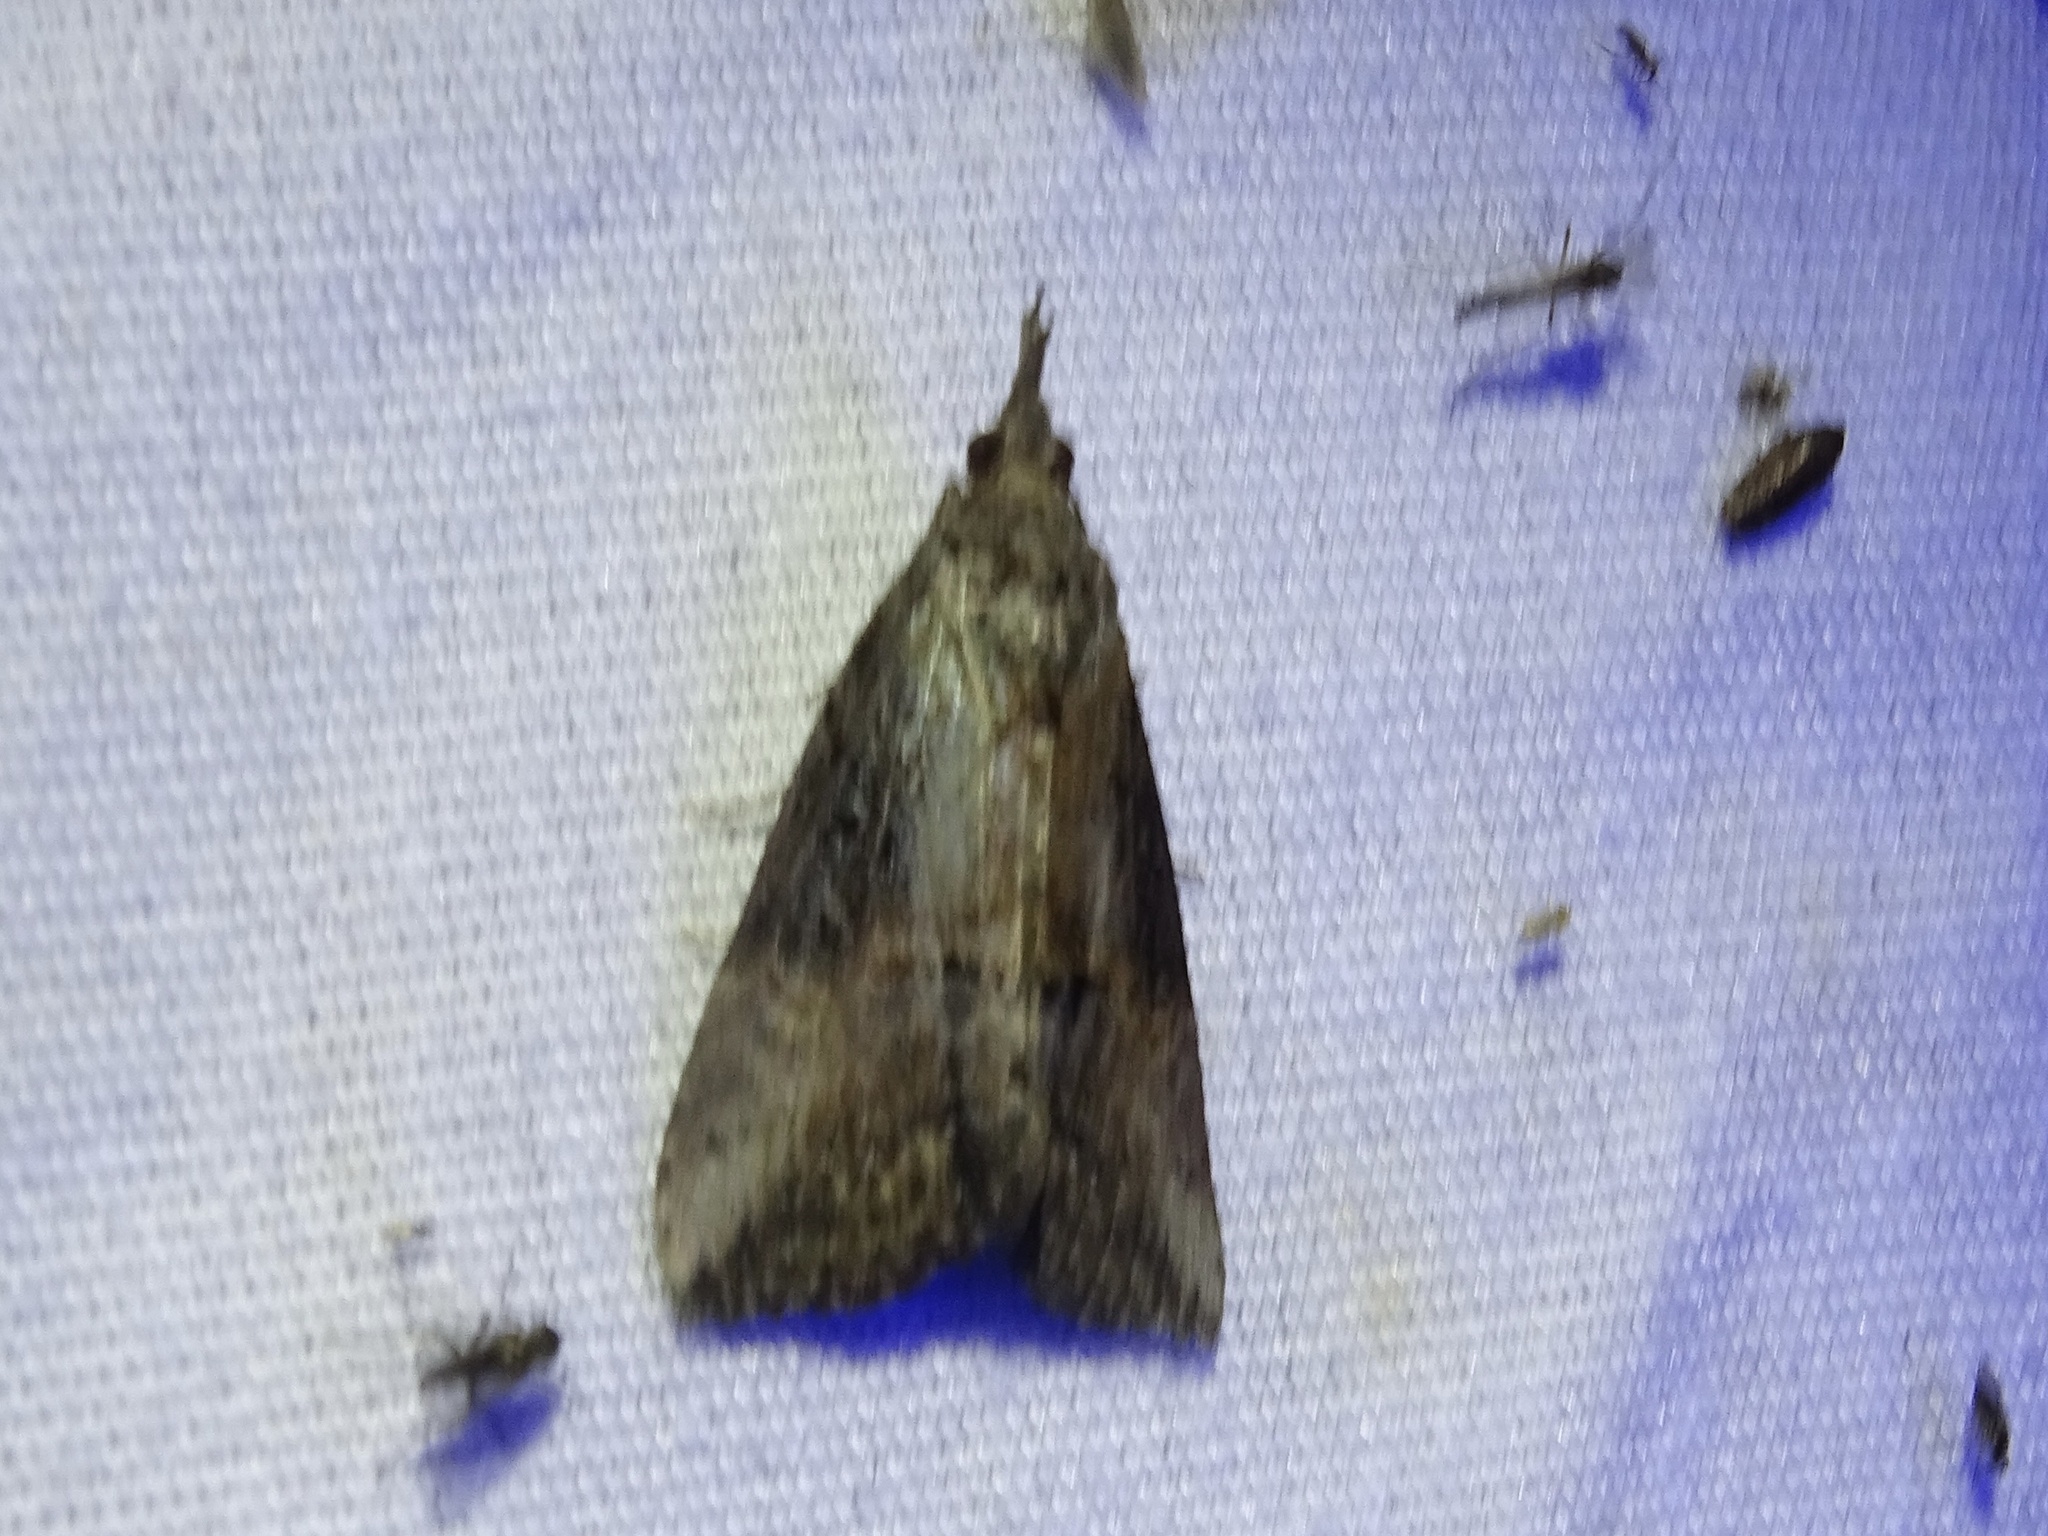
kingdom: Animalia
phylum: Arthropoda
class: Insecta
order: Lepidoptera
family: Erebidae
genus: Hypena
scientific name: Hypena scabra
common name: Green cloverworm
